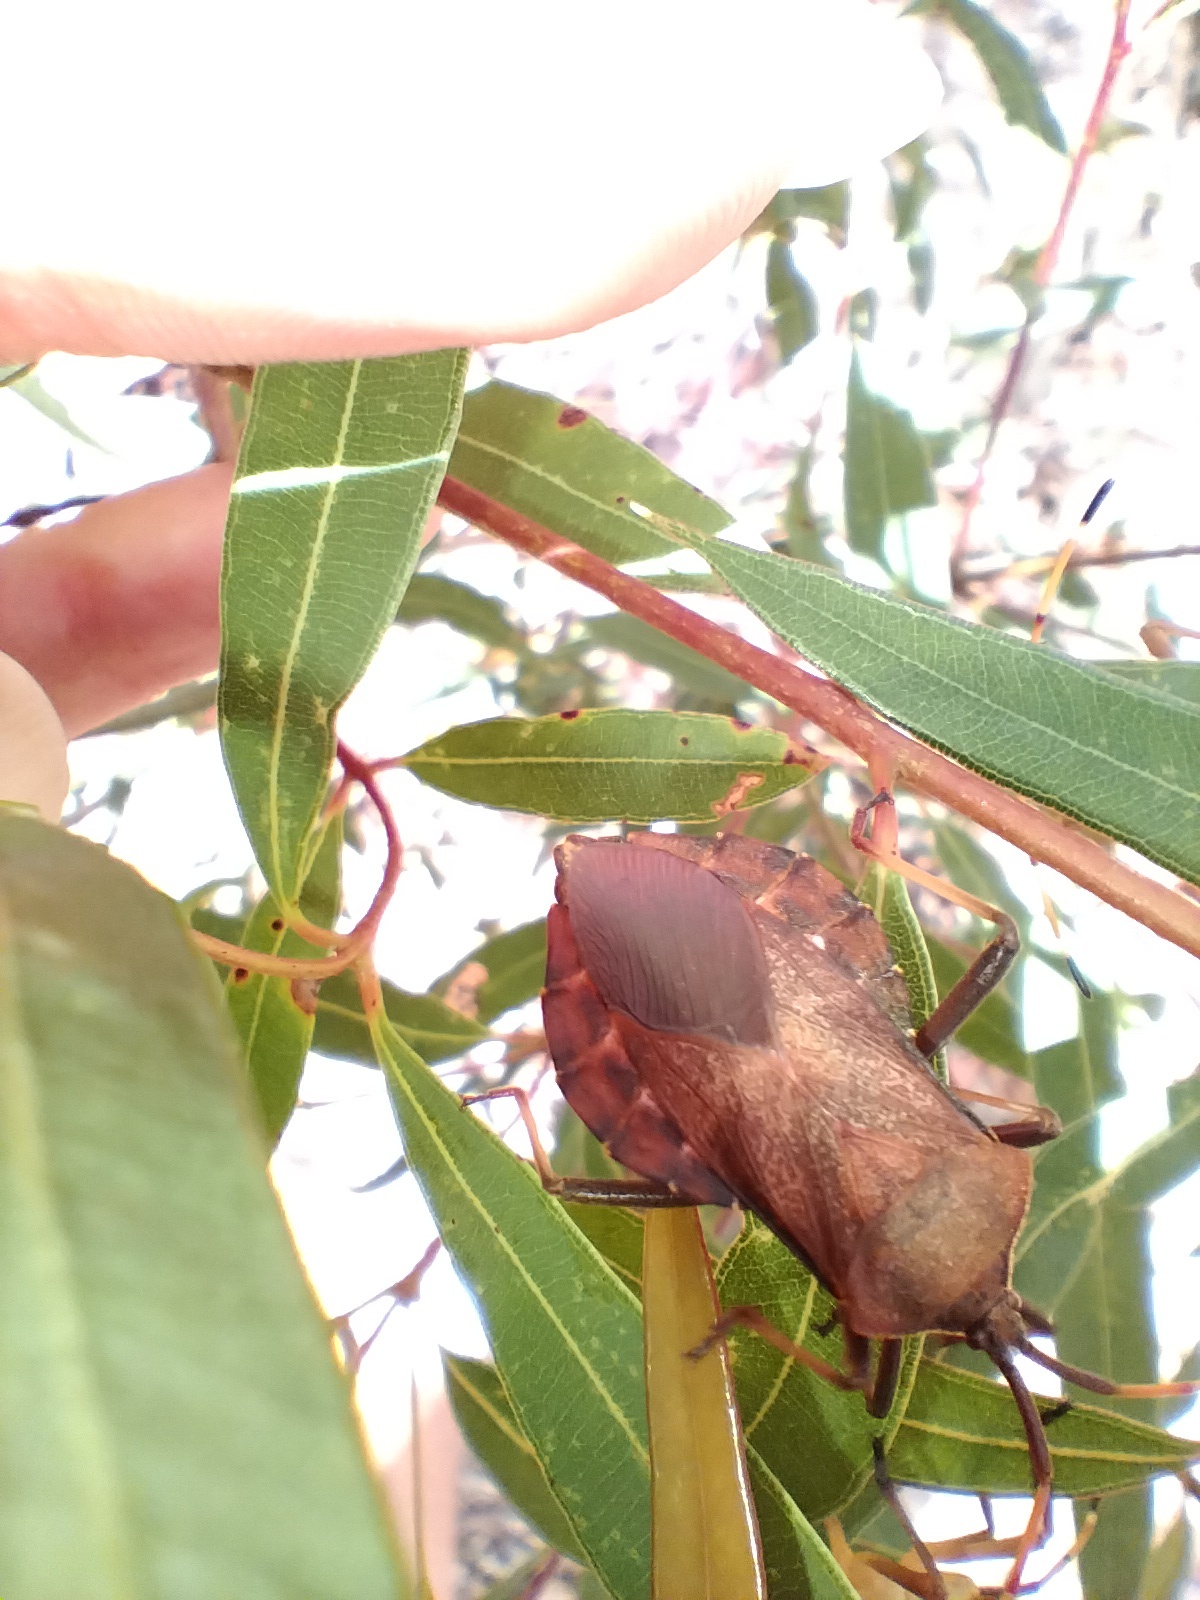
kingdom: Animalia
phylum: Arthropoda
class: Insecta
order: Hemiptera
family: Coreidae
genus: Amorbus
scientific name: Amorbus rhombifer
